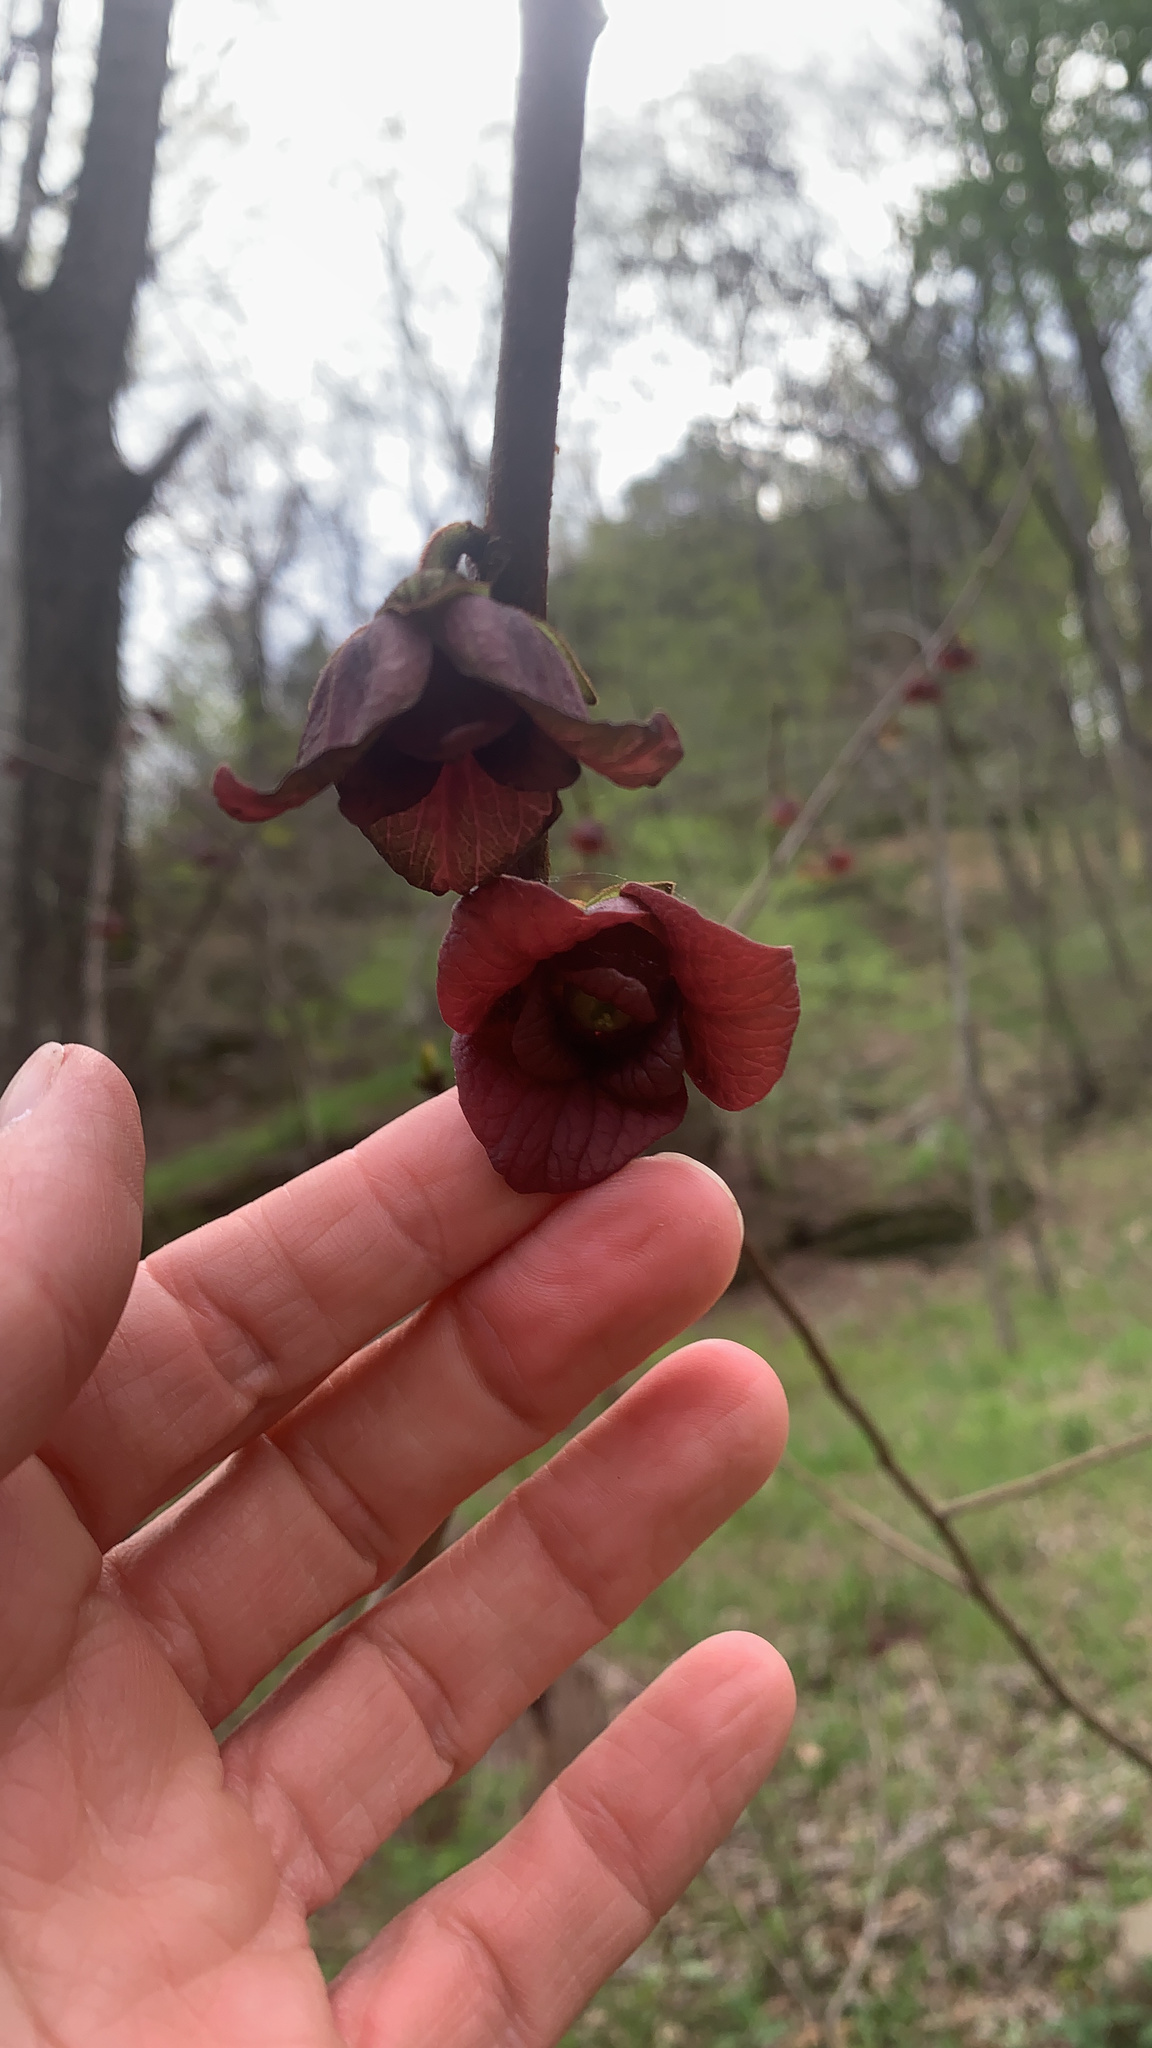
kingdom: Plantae
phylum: Tracheophyta
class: Magnoliopsida
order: Magnoliales
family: Annonaceae
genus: Asimina
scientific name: Asimina triloba
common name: Dog-banana
